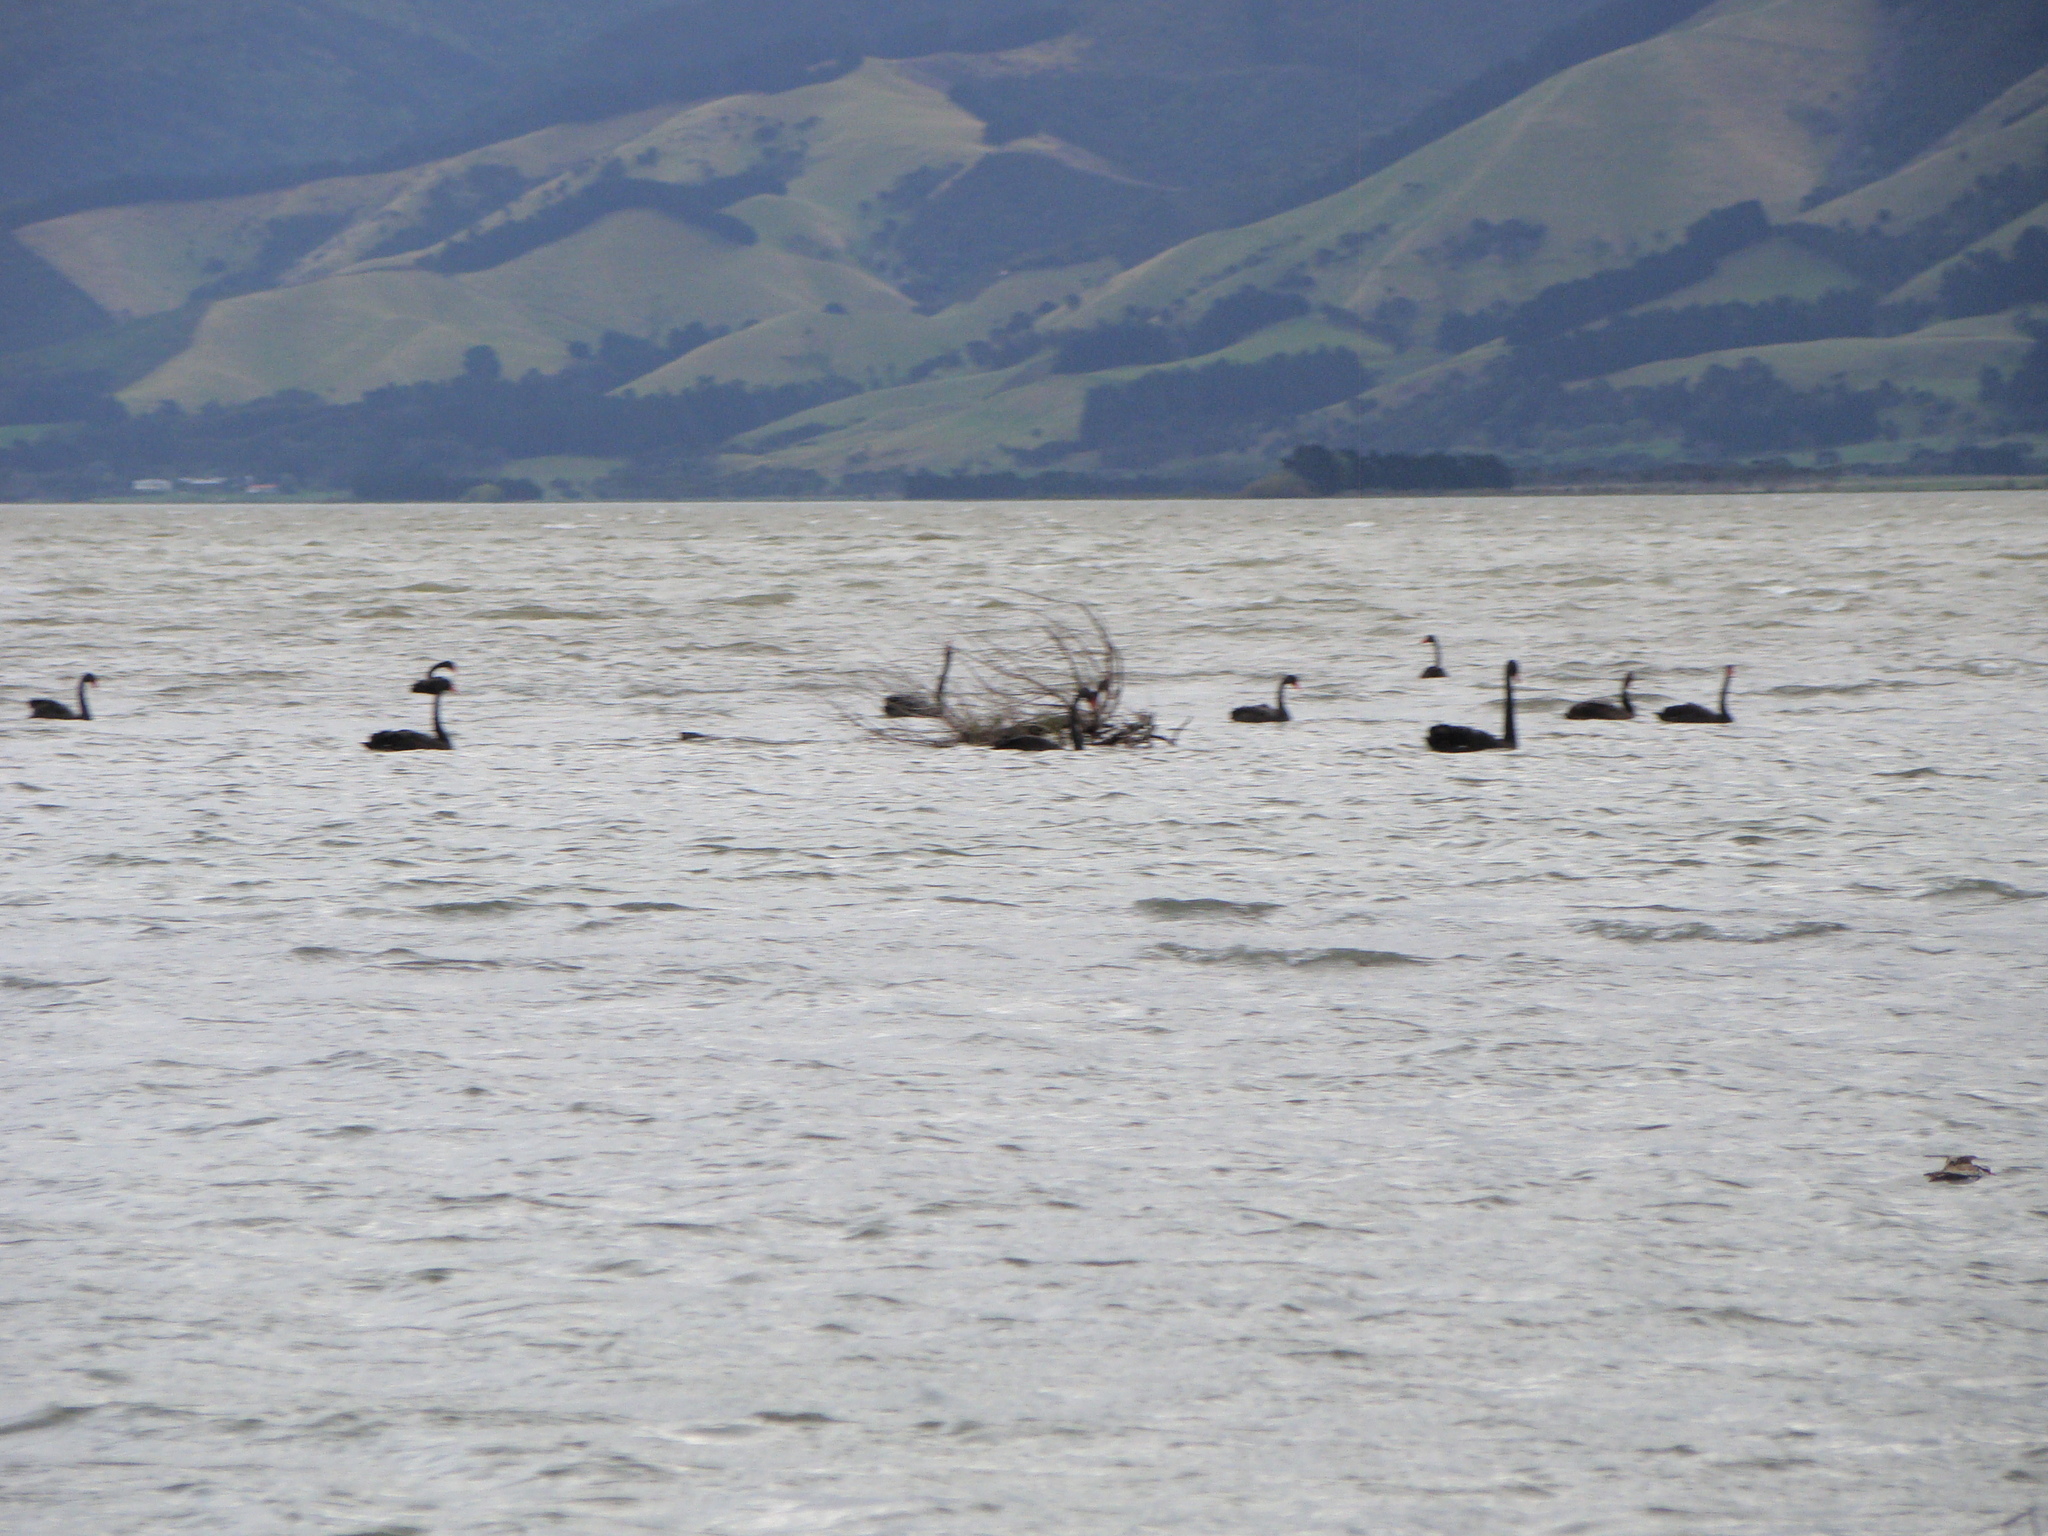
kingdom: Animalia
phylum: Chordata
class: Aves
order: Anseriformes
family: Anatidae
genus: Cygnus
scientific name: Cygnus atratus
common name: Black swan
